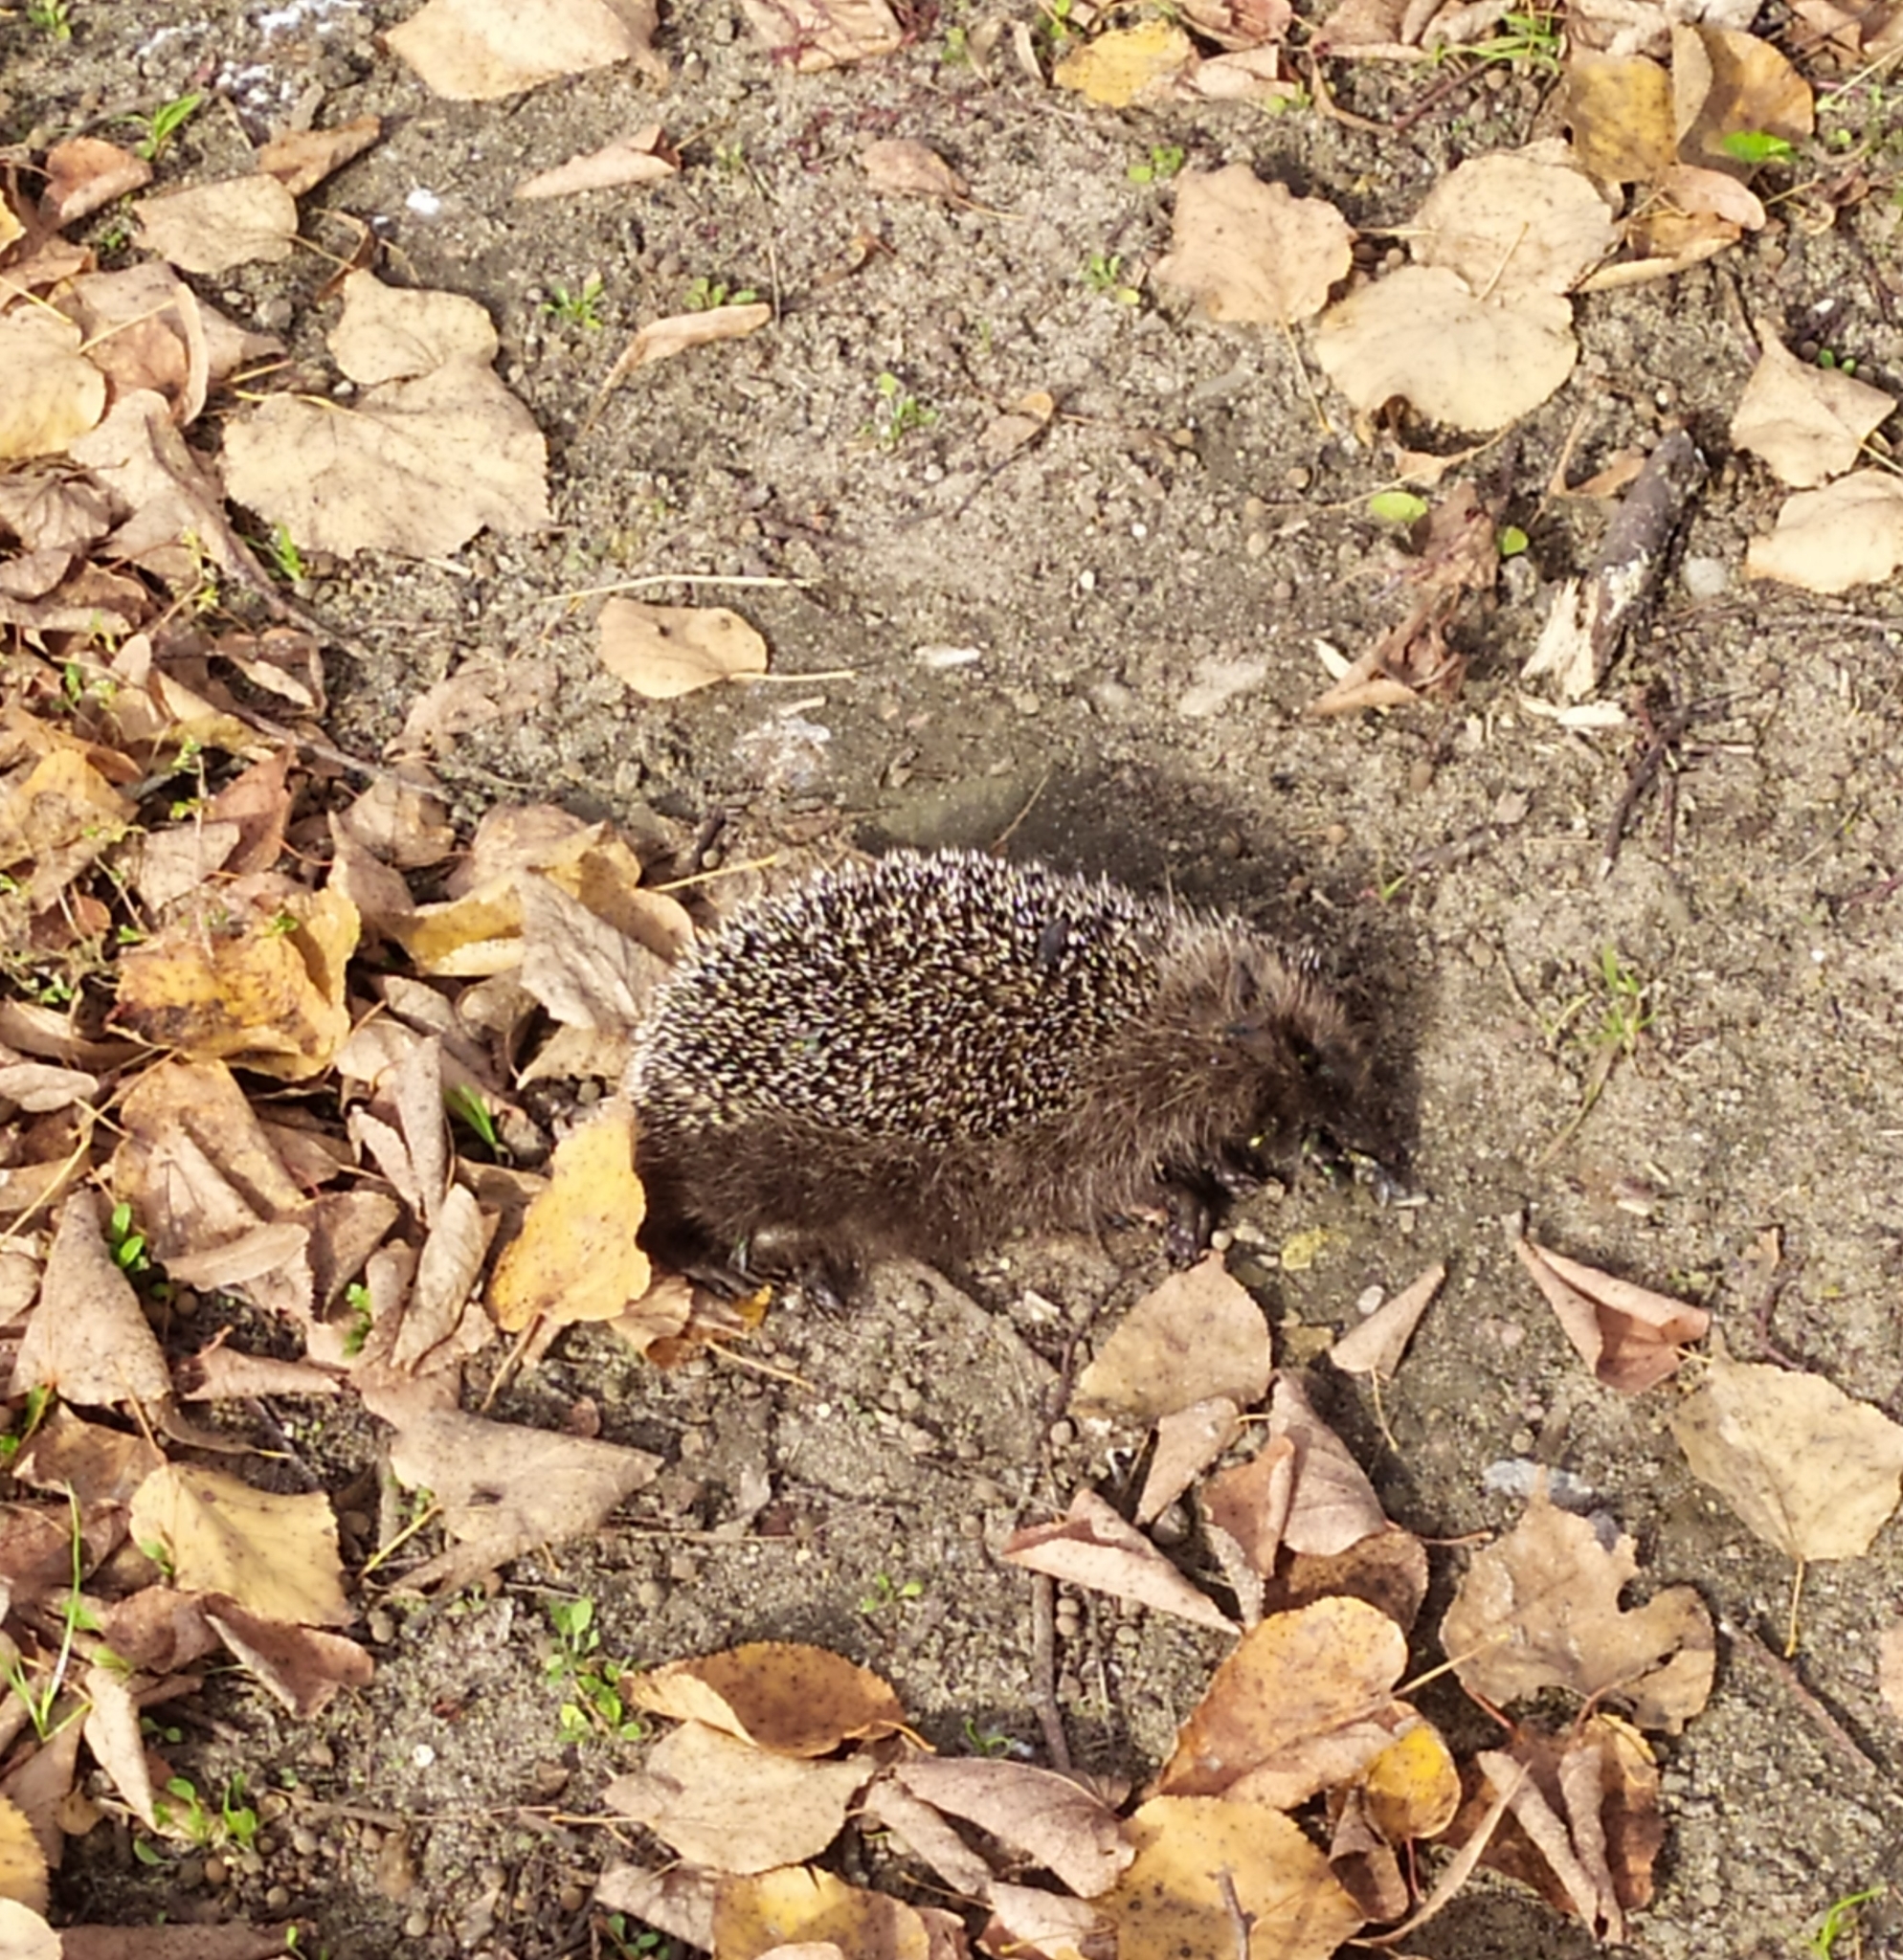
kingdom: Animalia
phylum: Chordata
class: Mammalia
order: Erinaceomorpha
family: Erinaceidae
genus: Erinaceus
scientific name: Erinaceus roumanicus
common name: Northern white-breasted hedgehog
